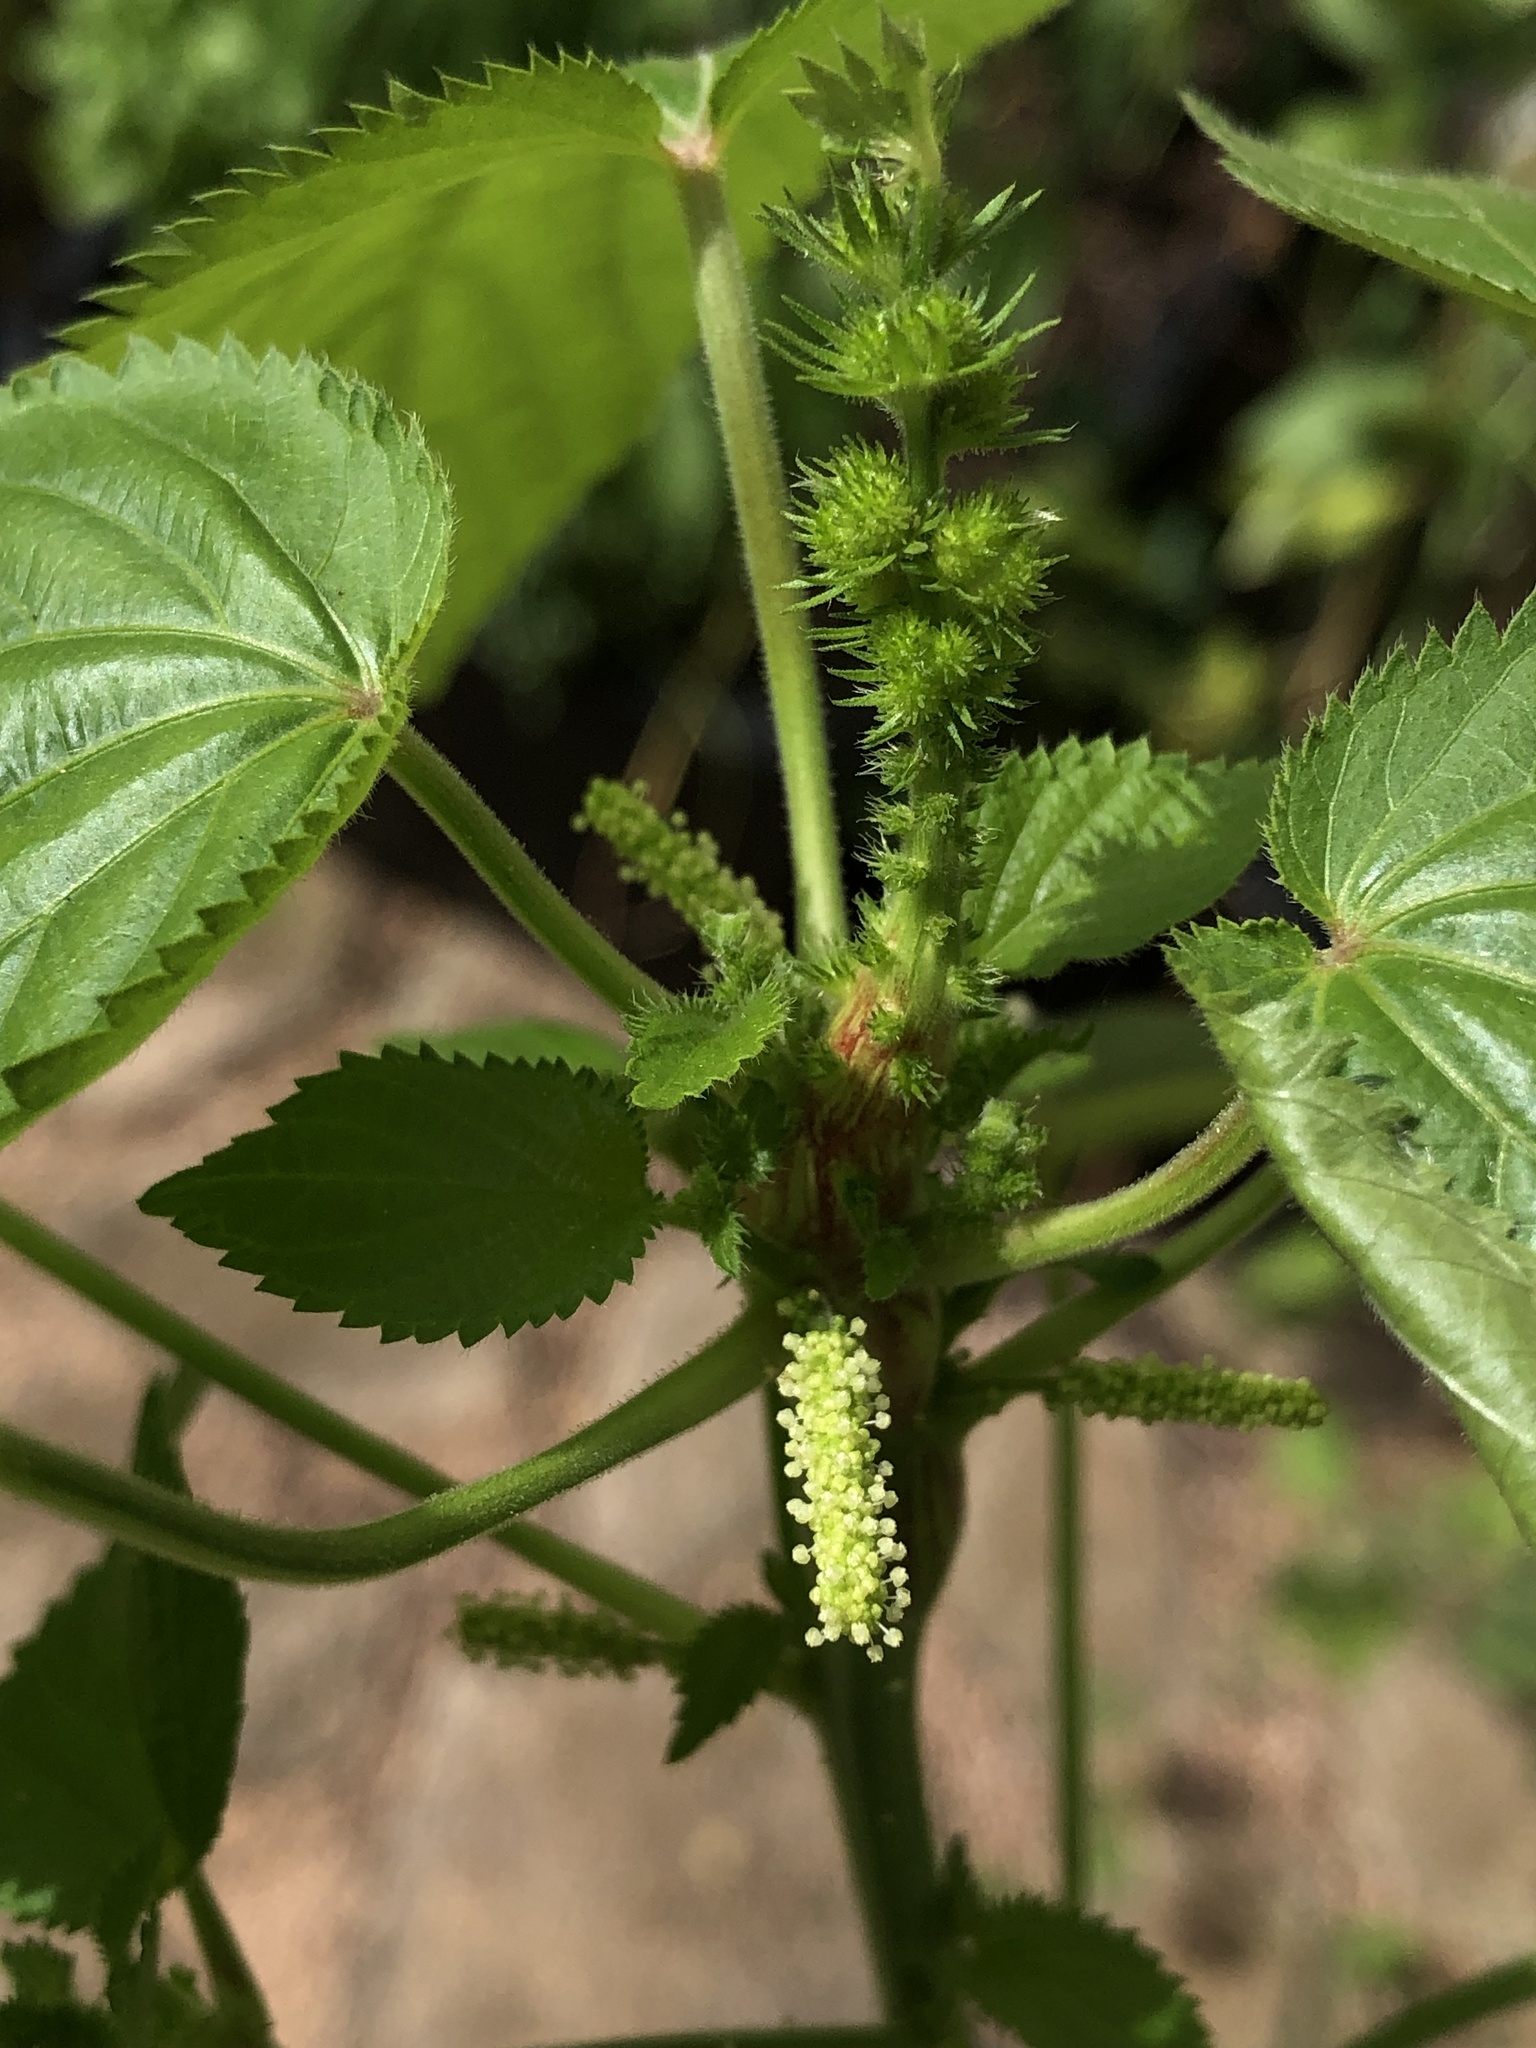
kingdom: Plantae
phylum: Tracheophyta
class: Magnoliopsida
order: Malpighiales
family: Euphorbiaceae
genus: Acalypha
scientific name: Acalypha ostryifolia
